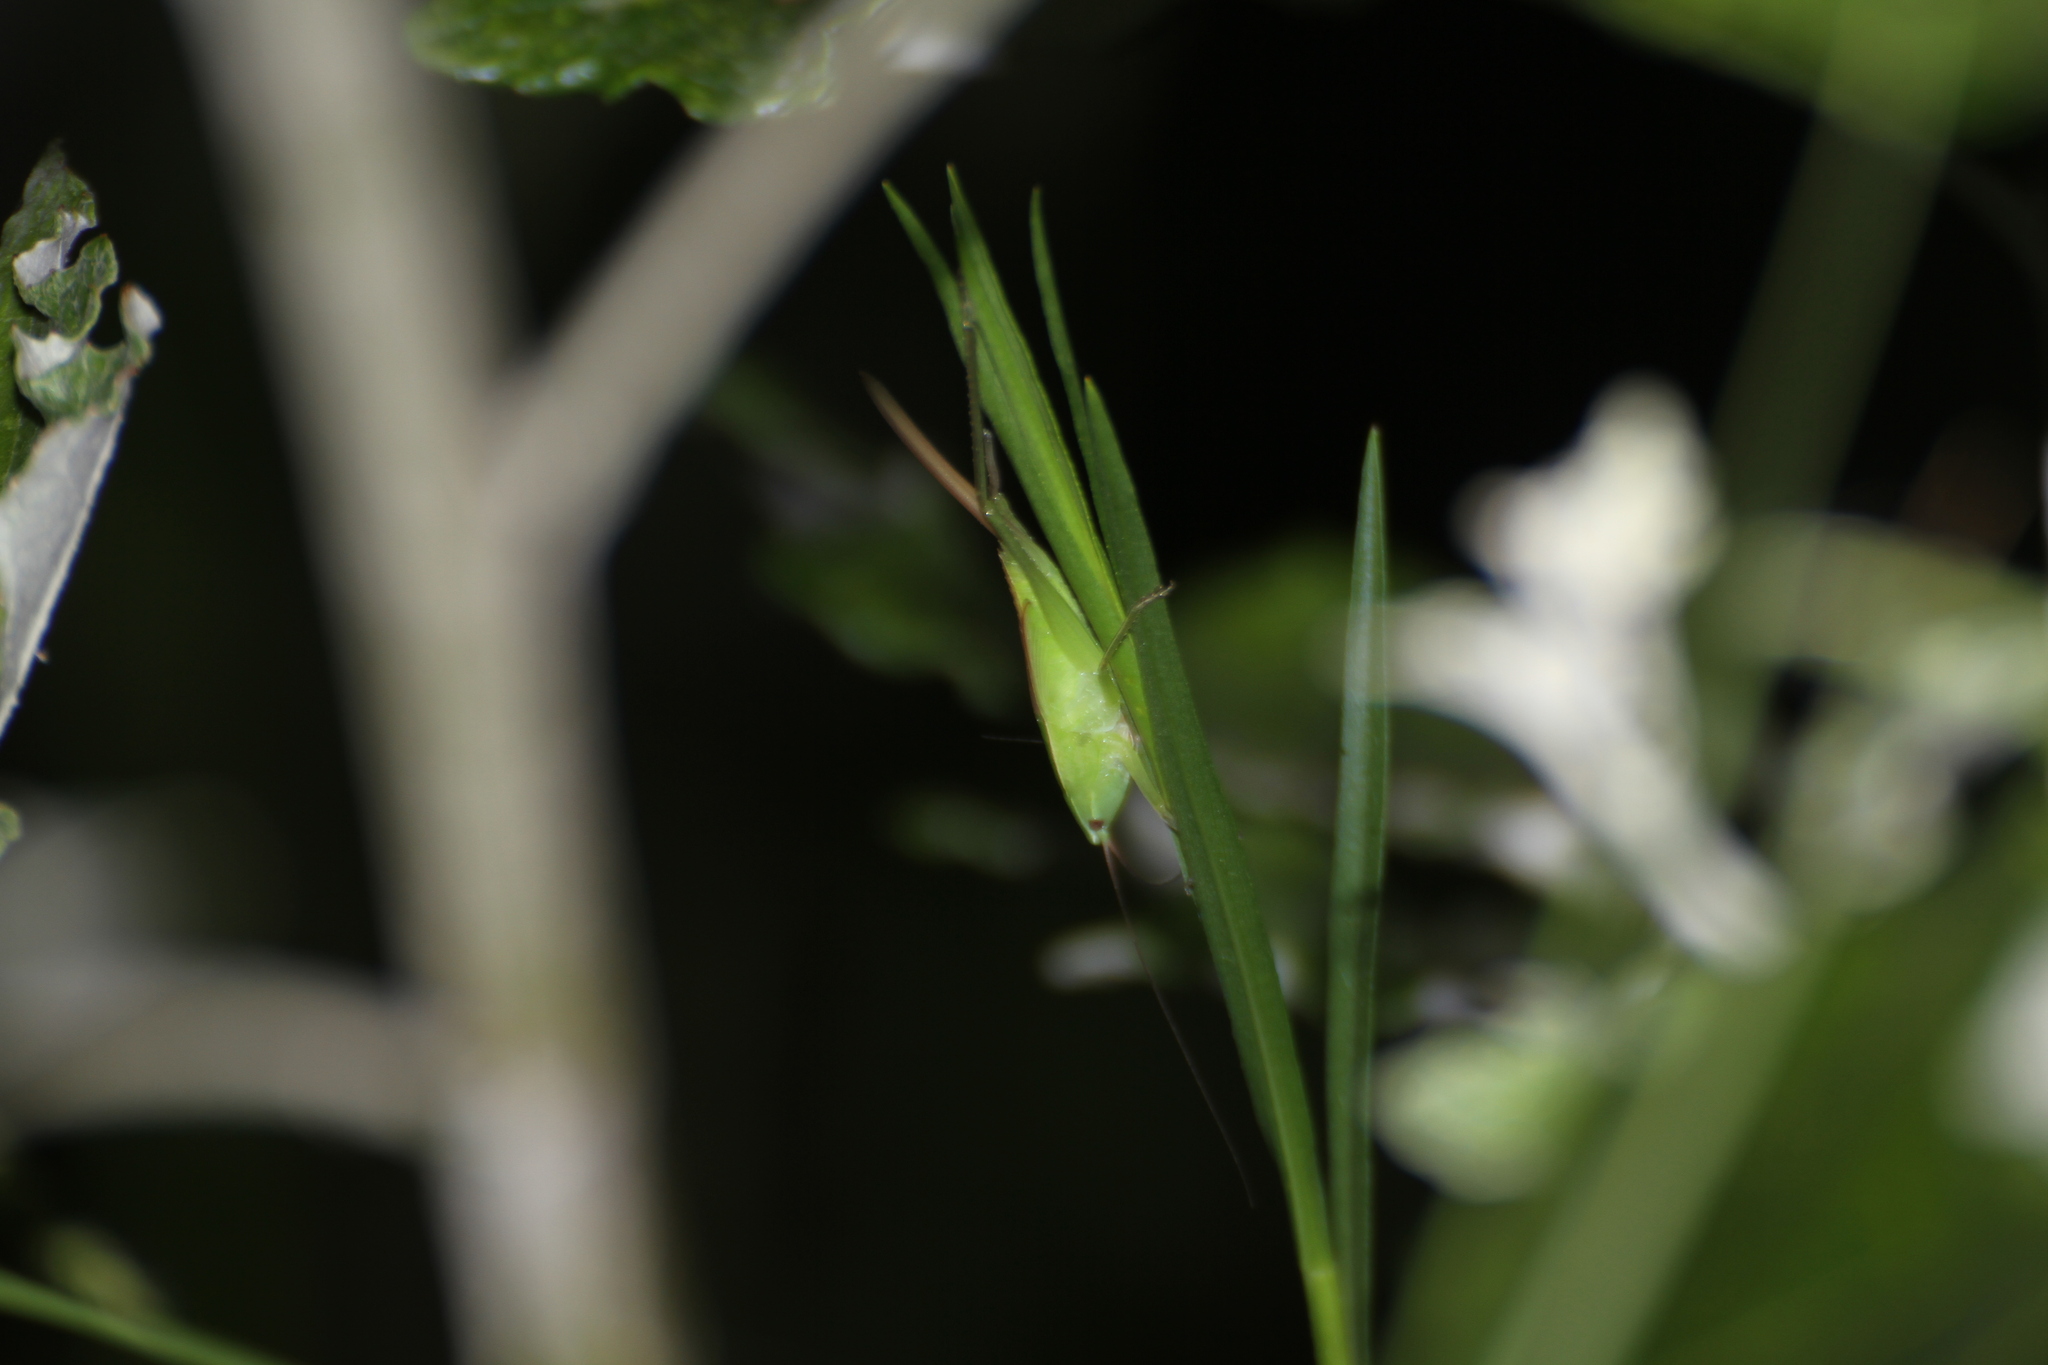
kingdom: Animalia
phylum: Arthropoda
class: Insecta
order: Orthoptera
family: Tettigoniidae
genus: Ruspolia
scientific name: Ruspolia nitidula
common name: Large conehead
